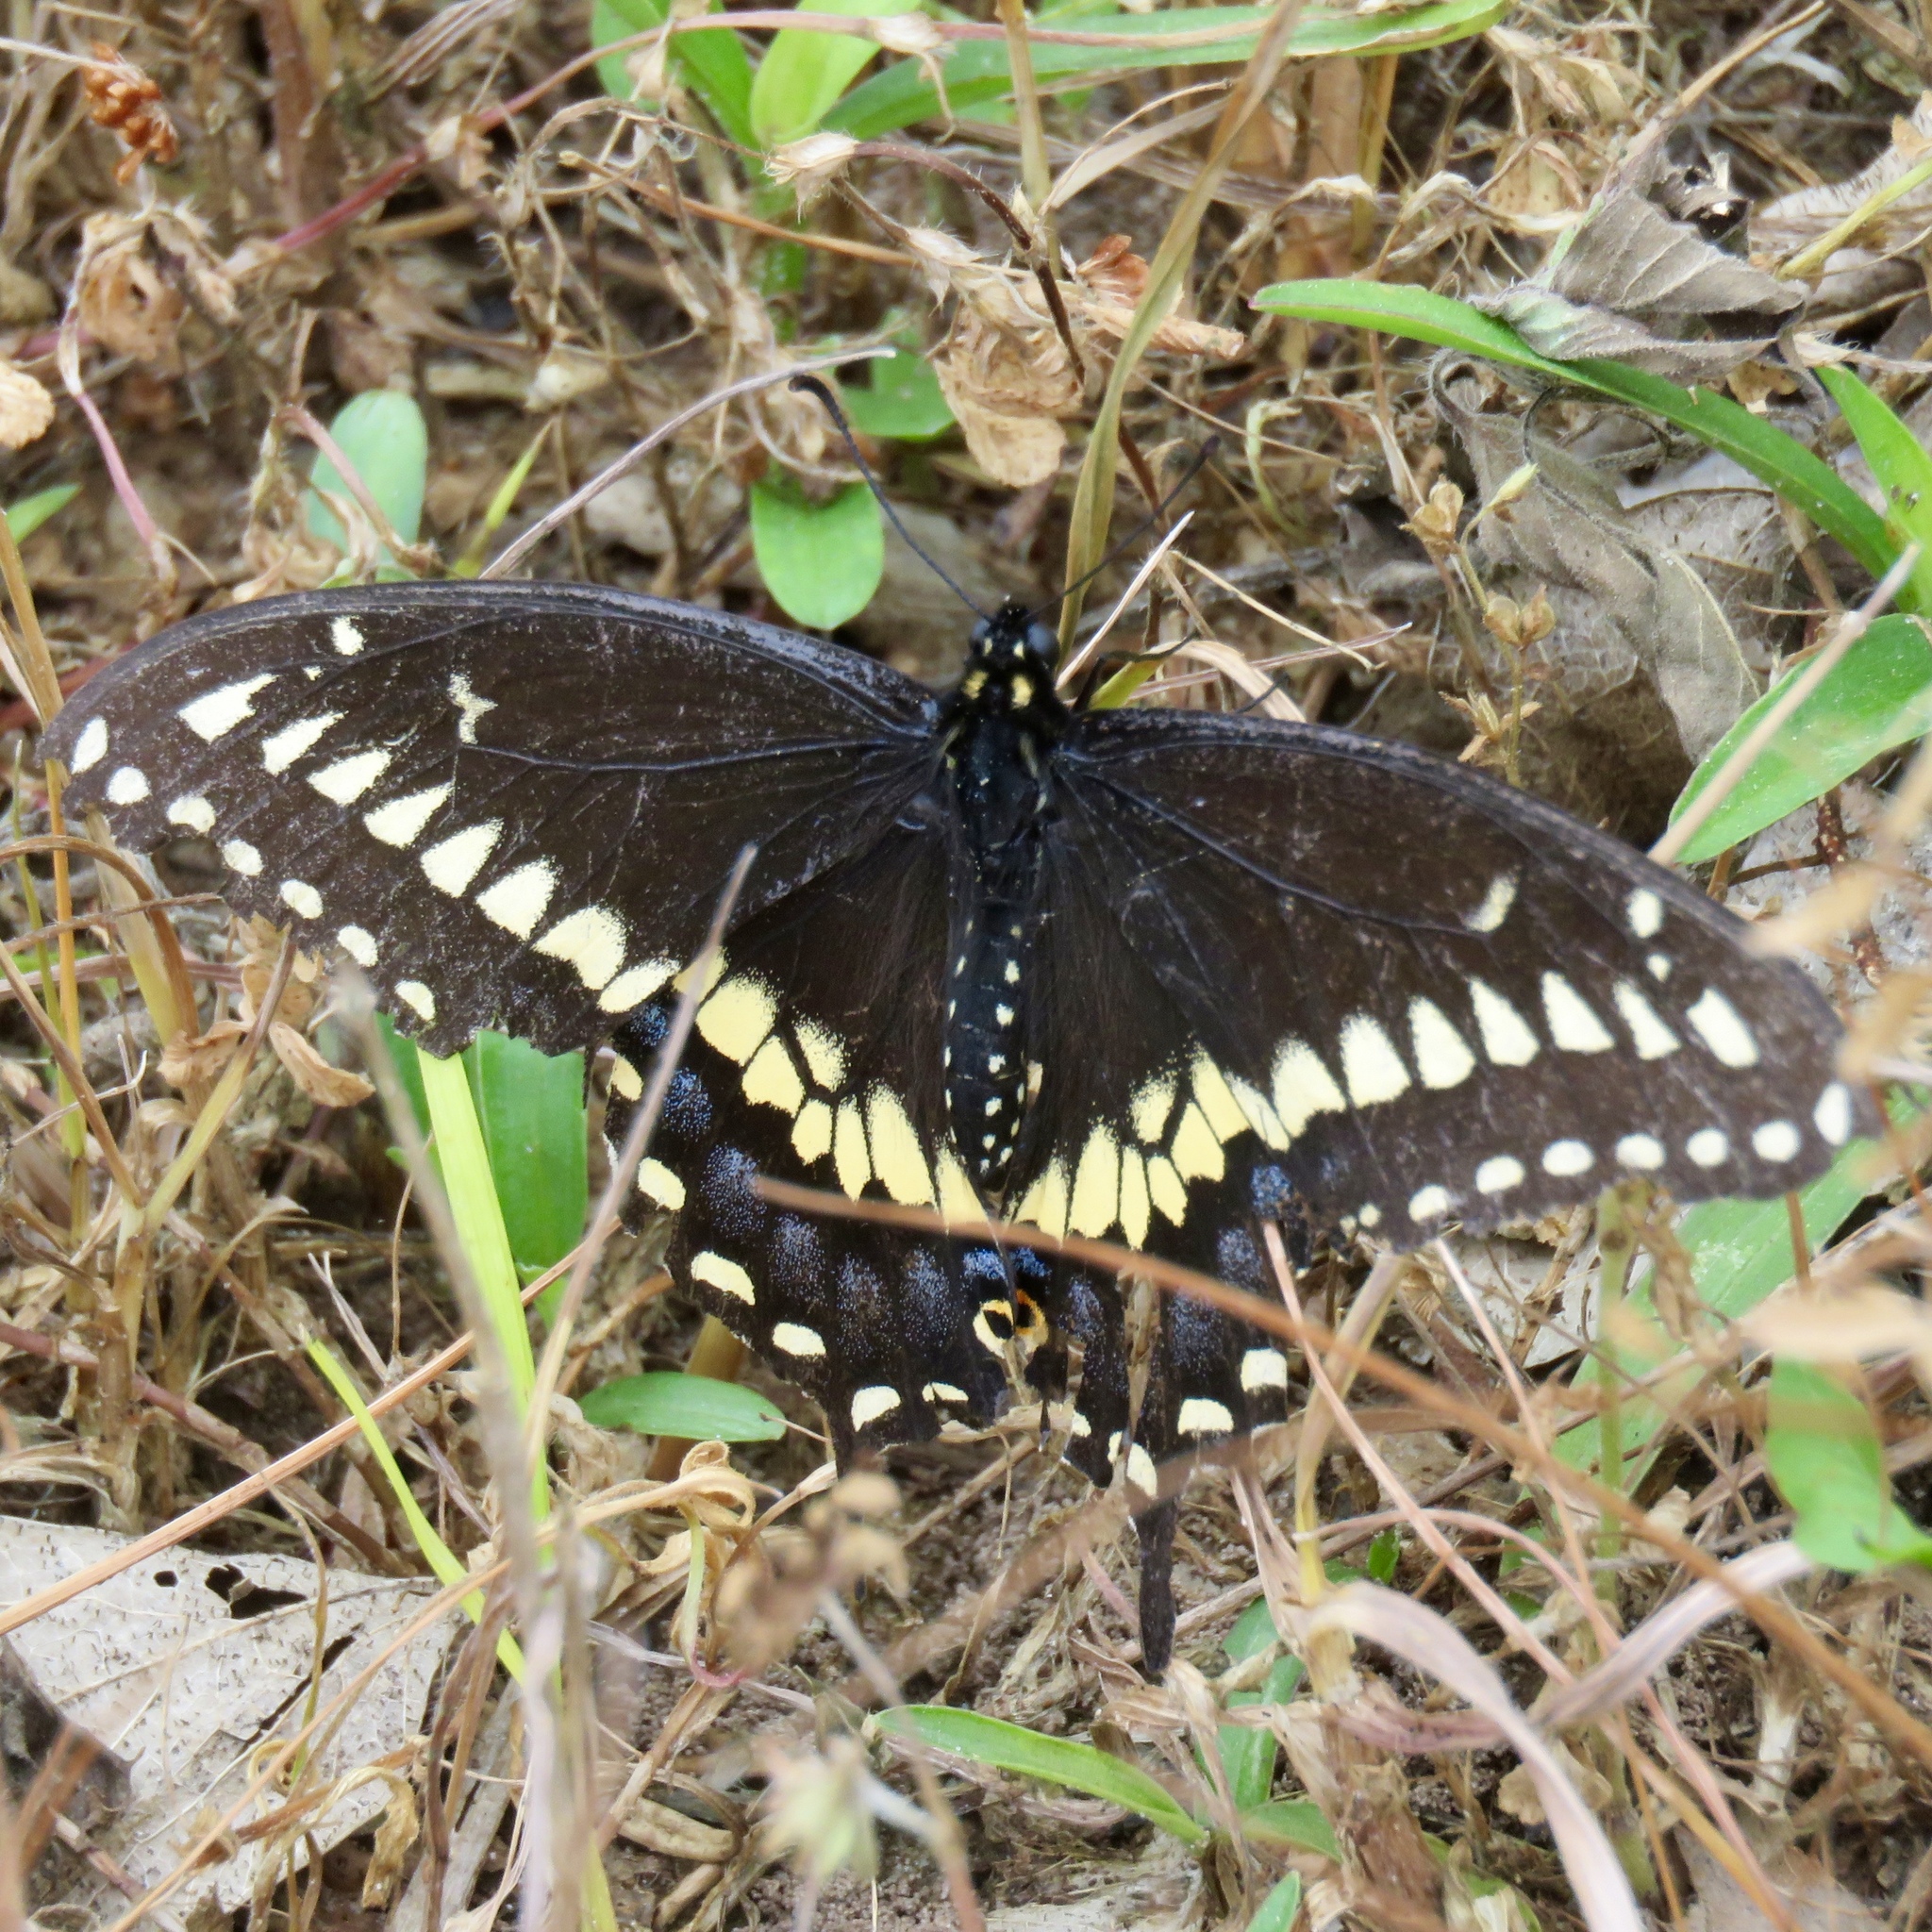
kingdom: Animalia
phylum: Arthropoda
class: Insecta
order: Lepidoptera
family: Papilionidae
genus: Papilio
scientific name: Papilio polyxenes
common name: Black swallowtail
